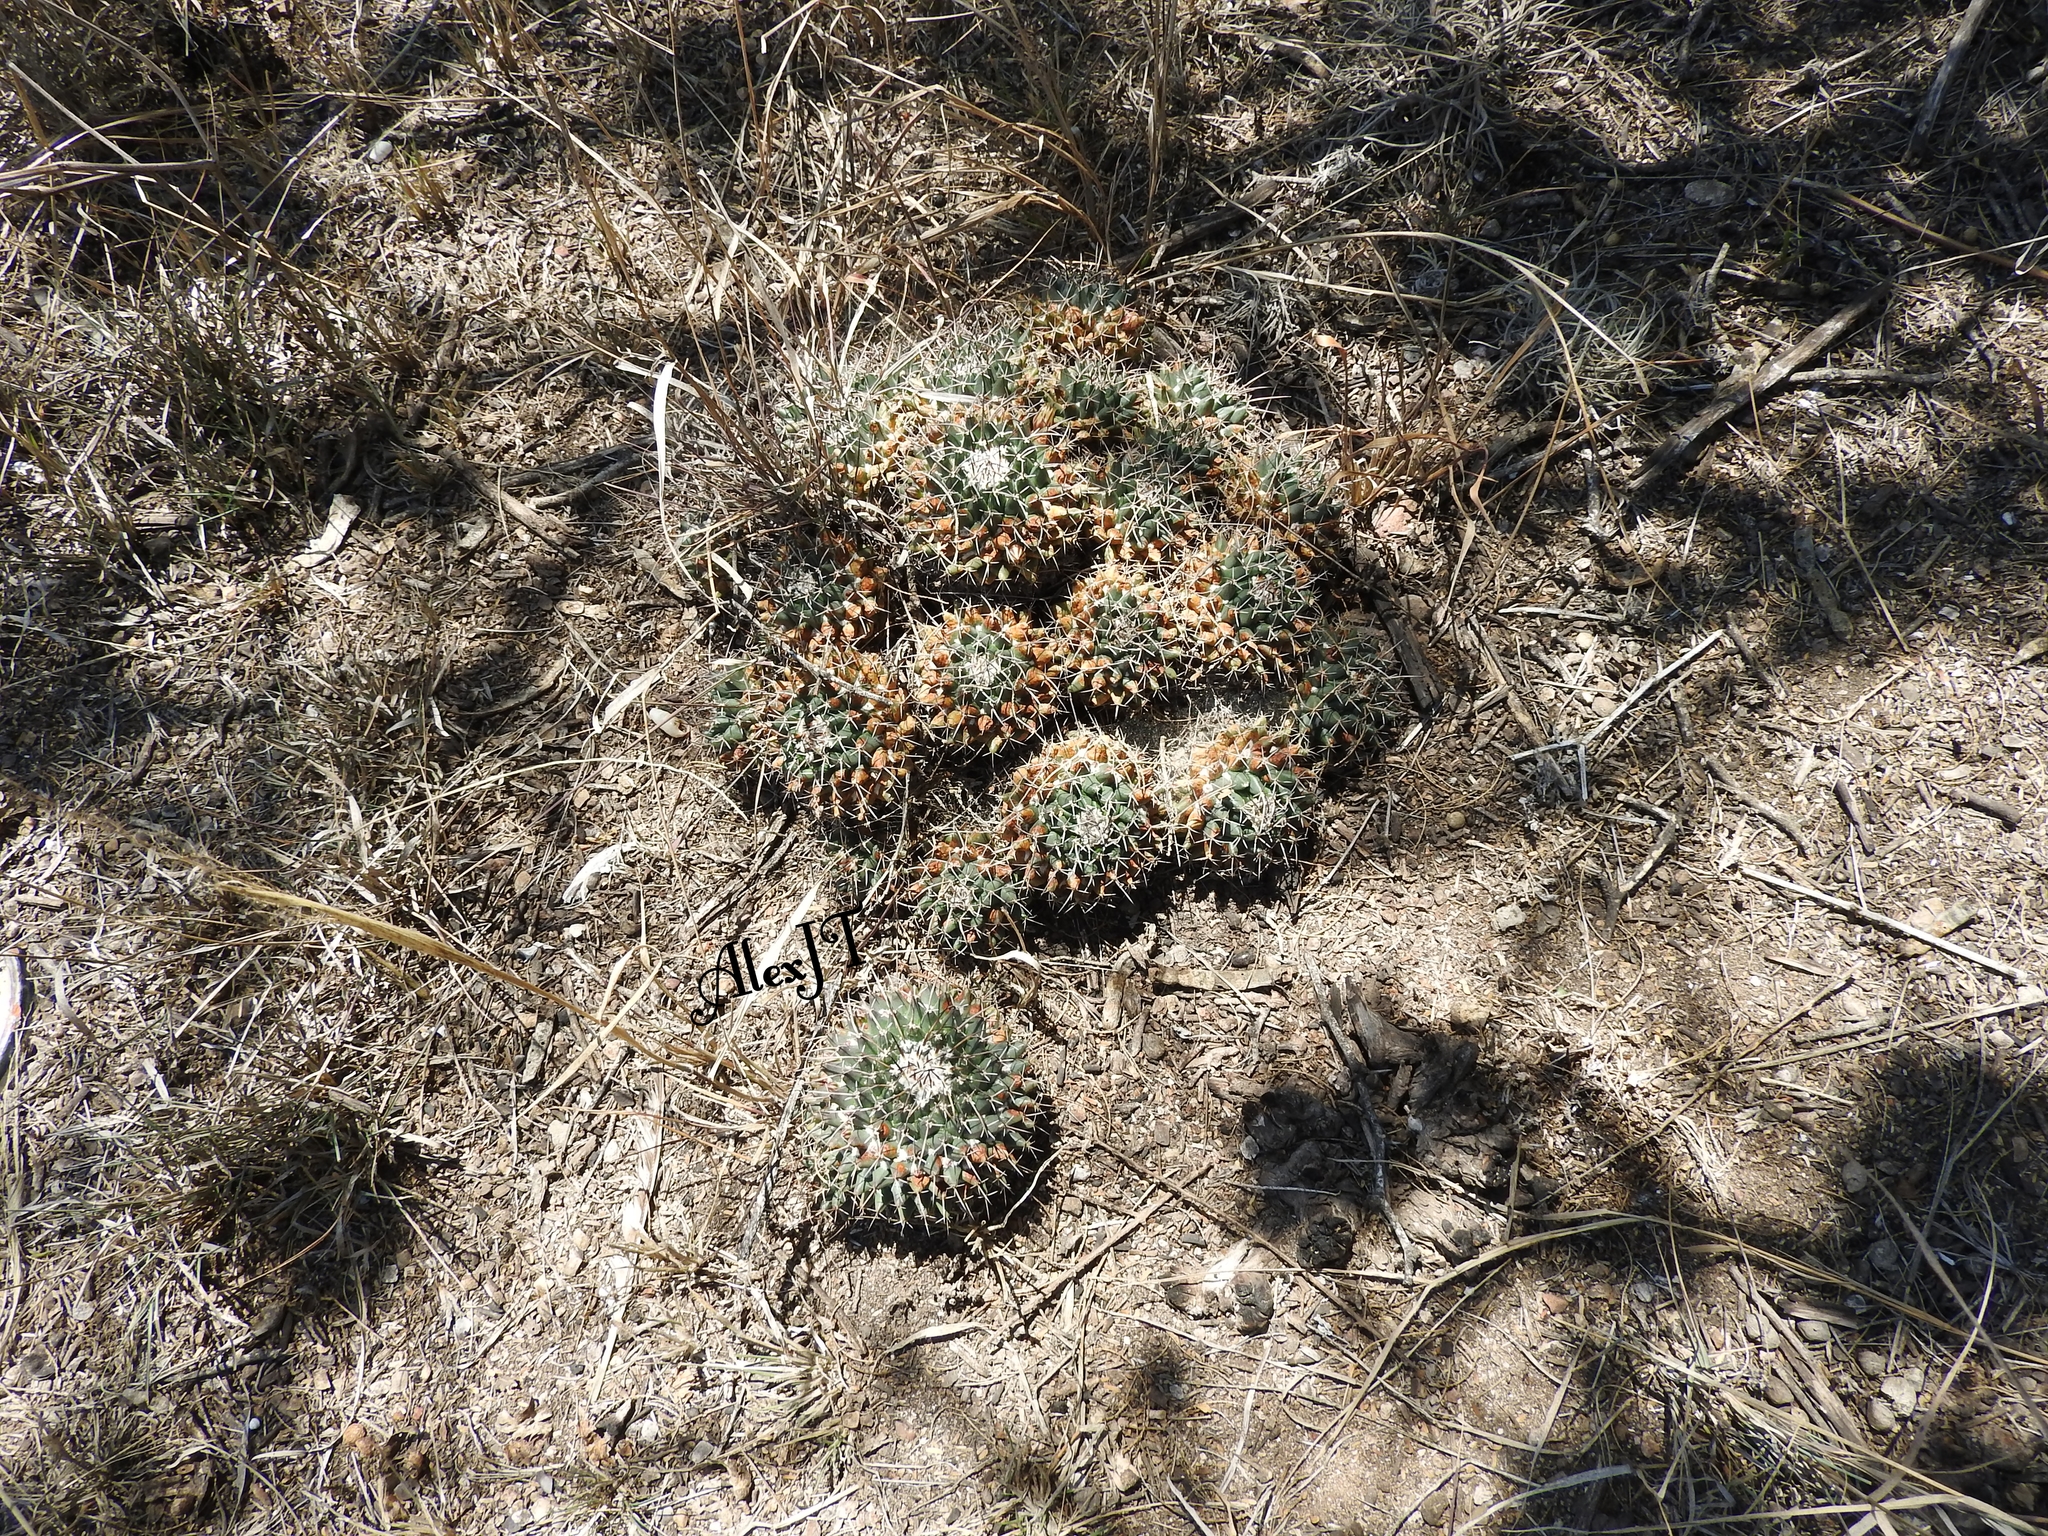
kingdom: Plantae
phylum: Tracheophyta
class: Magnoliopsida
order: Caryophyllales
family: Cactaceae
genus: Mammillaria
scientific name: Mammillaria magnimamma
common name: Mexican pincushion
